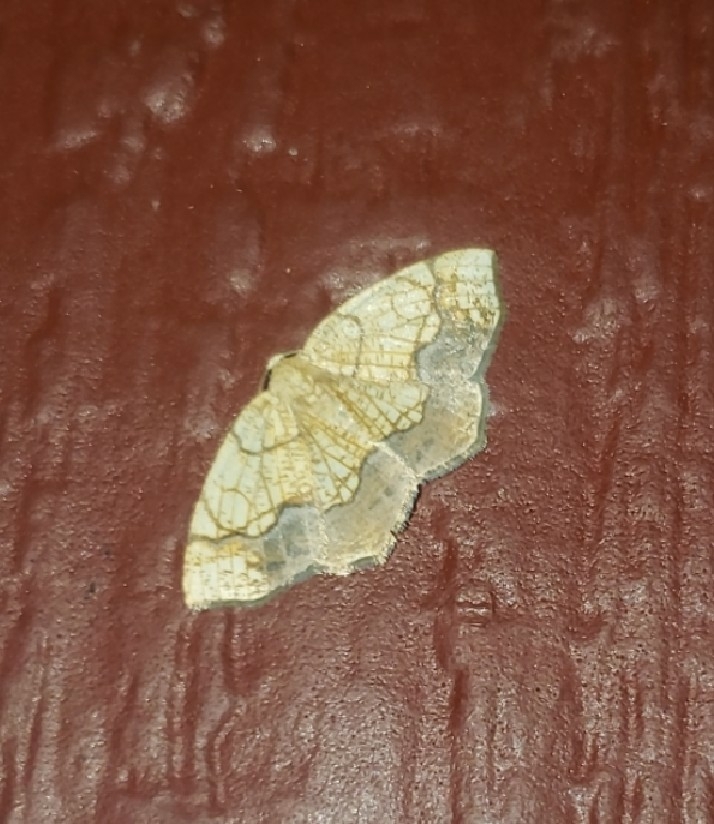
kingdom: Animalia
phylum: Arthropoda
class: Insecta
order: Lepidoptera
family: Geometridae
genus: Nematocampa
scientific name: Nematocampa resistaria
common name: Horned spanworm moth
